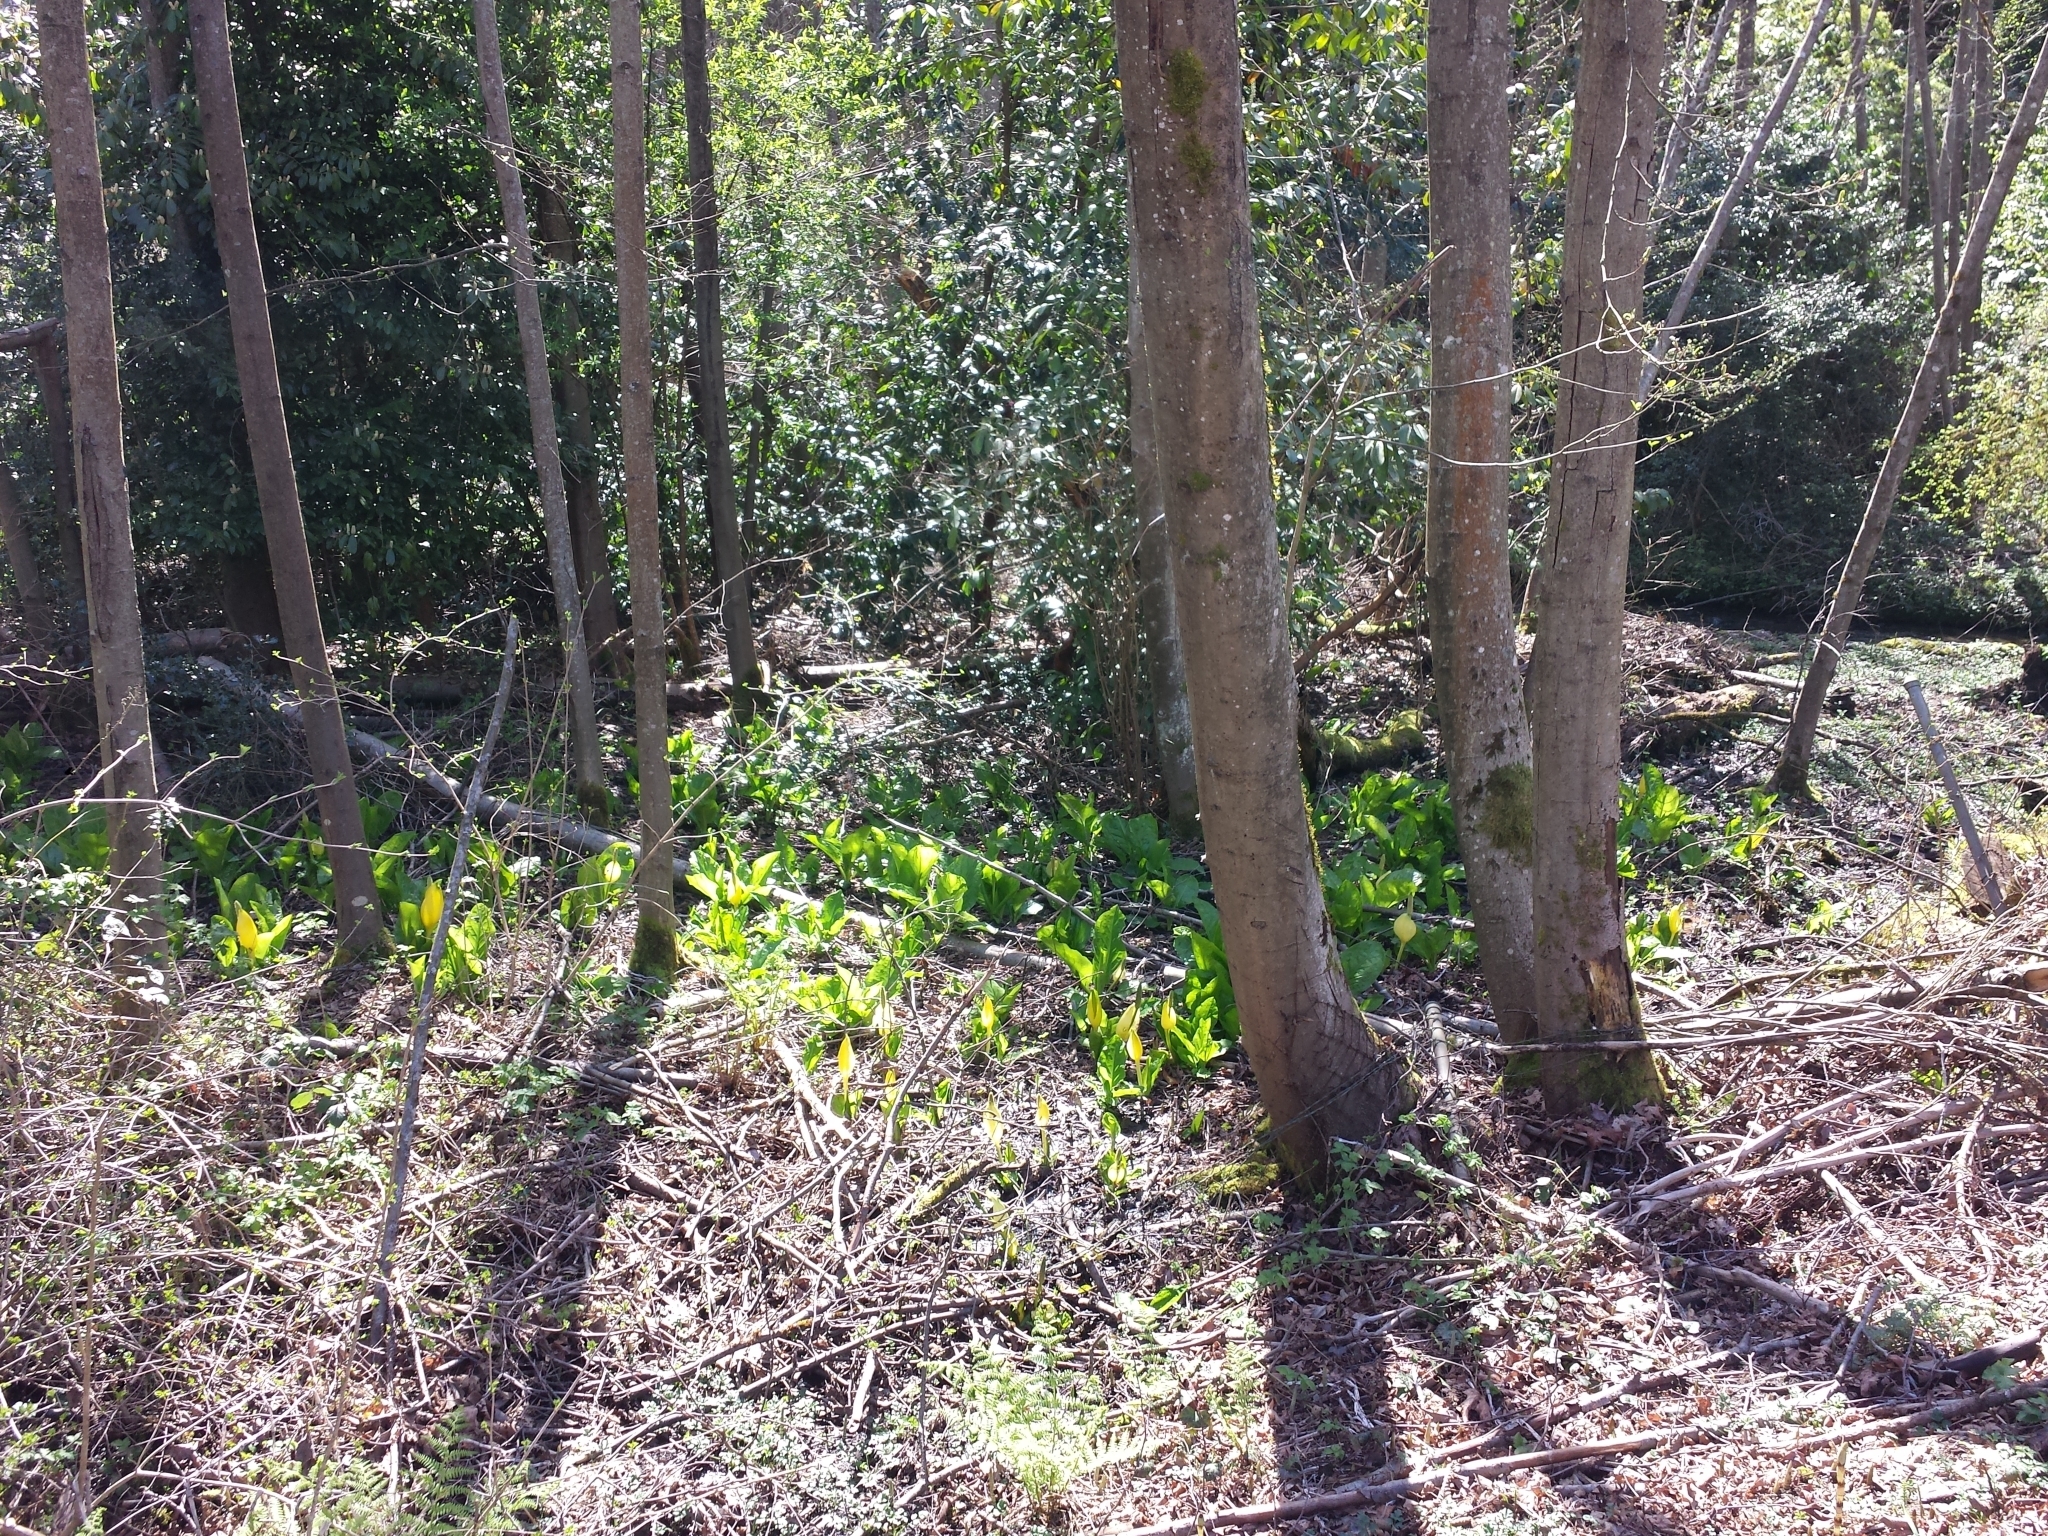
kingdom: Plantae
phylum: Tracheophyta
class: Liliopsida
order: Alismatales
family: Araceae
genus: Lysichiton
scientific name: Lysichiton americanus
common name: American skunk cabbage
